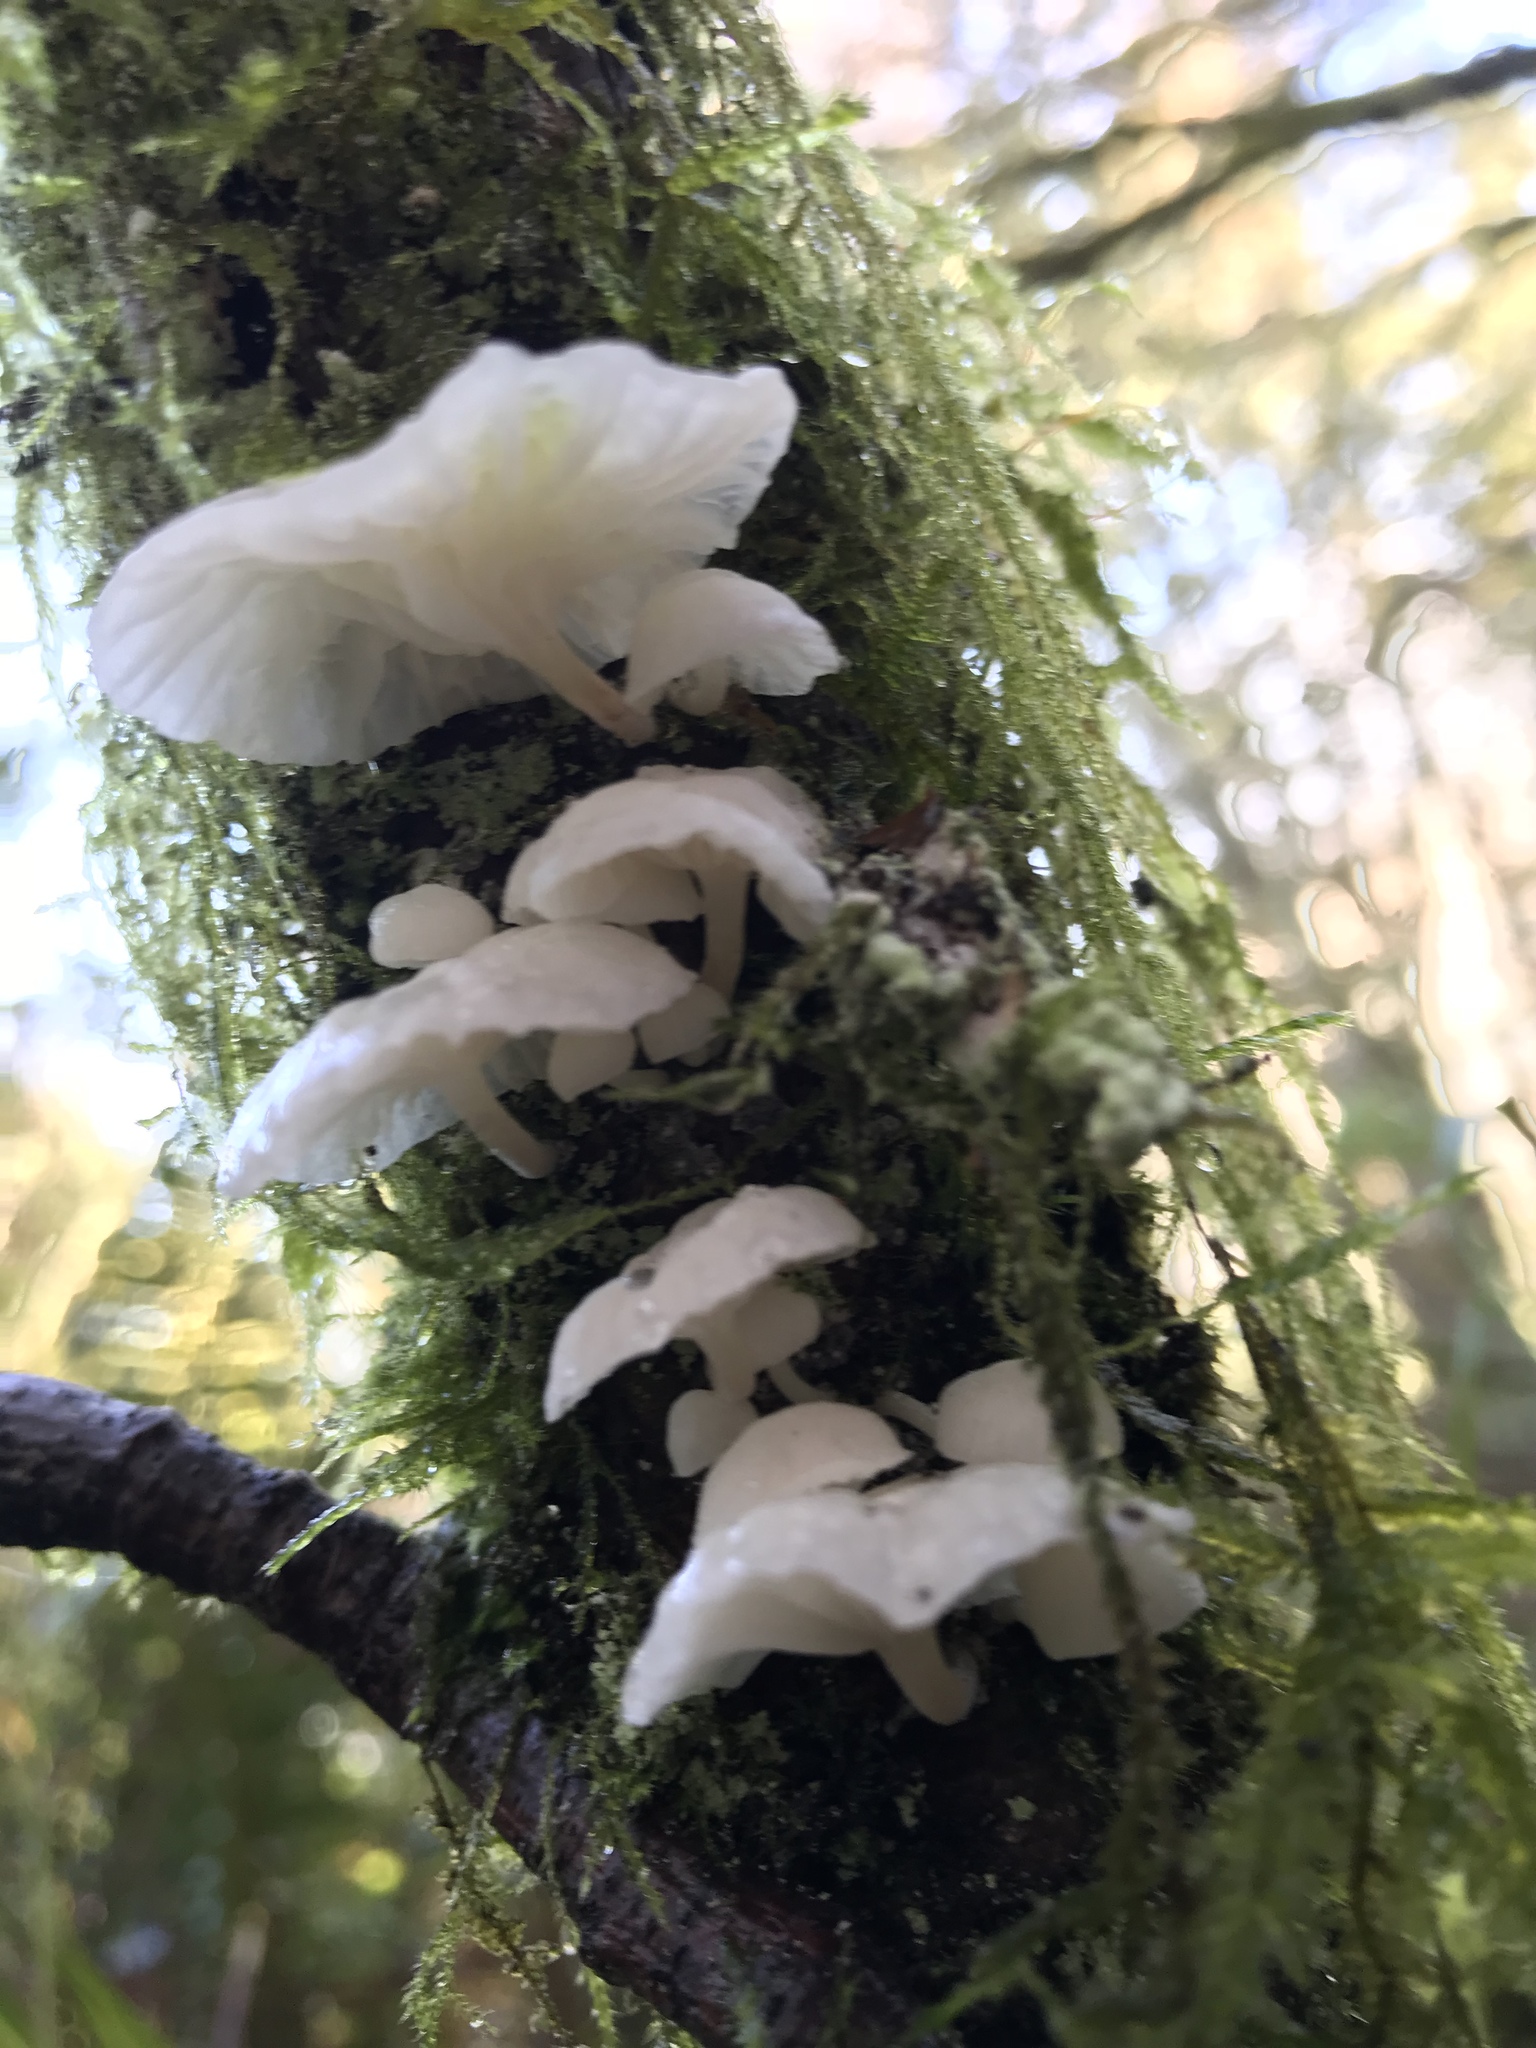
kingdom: Fungi
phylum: Basidiomycota
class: Agaricomycetes
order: Agaricales
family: Omphalotaceae
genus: Marasmiellus
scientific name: Marasmiellus candidus
